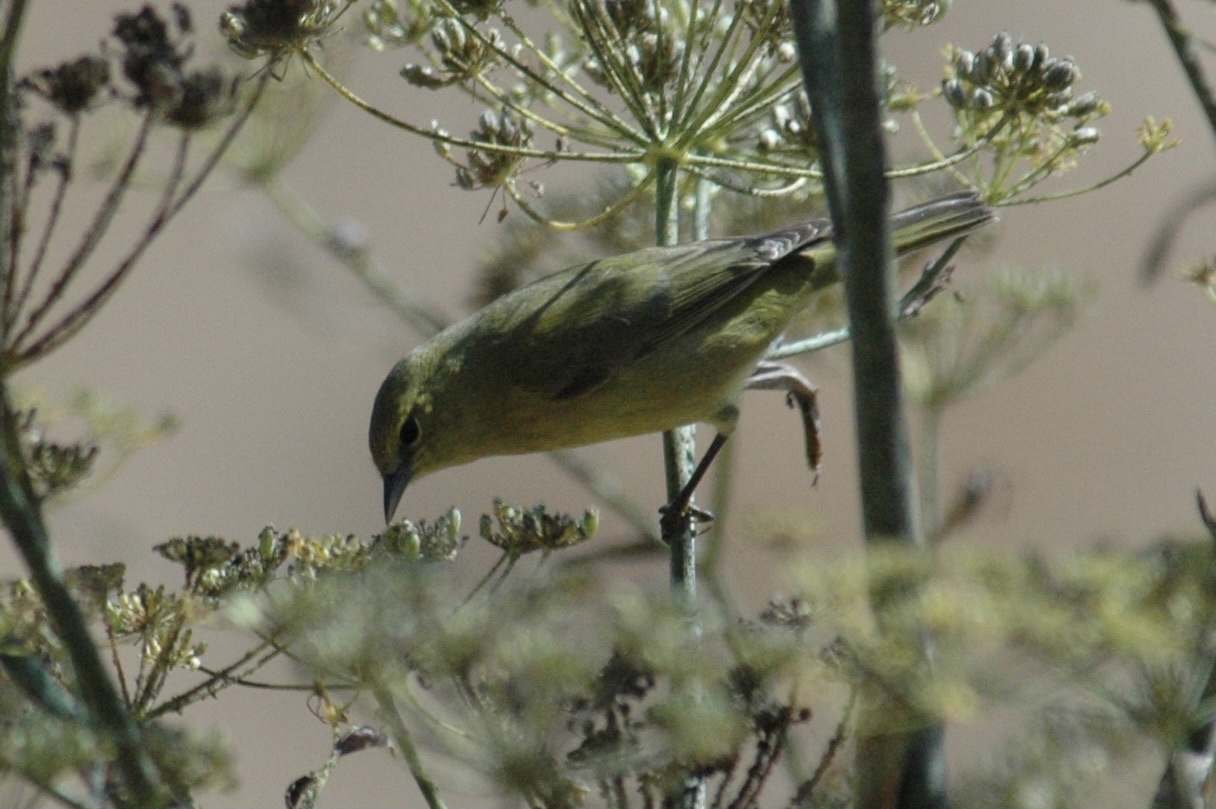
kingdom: Animalia
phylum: Chordata
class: Aves
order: Passeriformes
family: Parulidae
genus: Leiothlypis
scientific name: Leiothlypis celata
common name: Orange-crowned warbler
